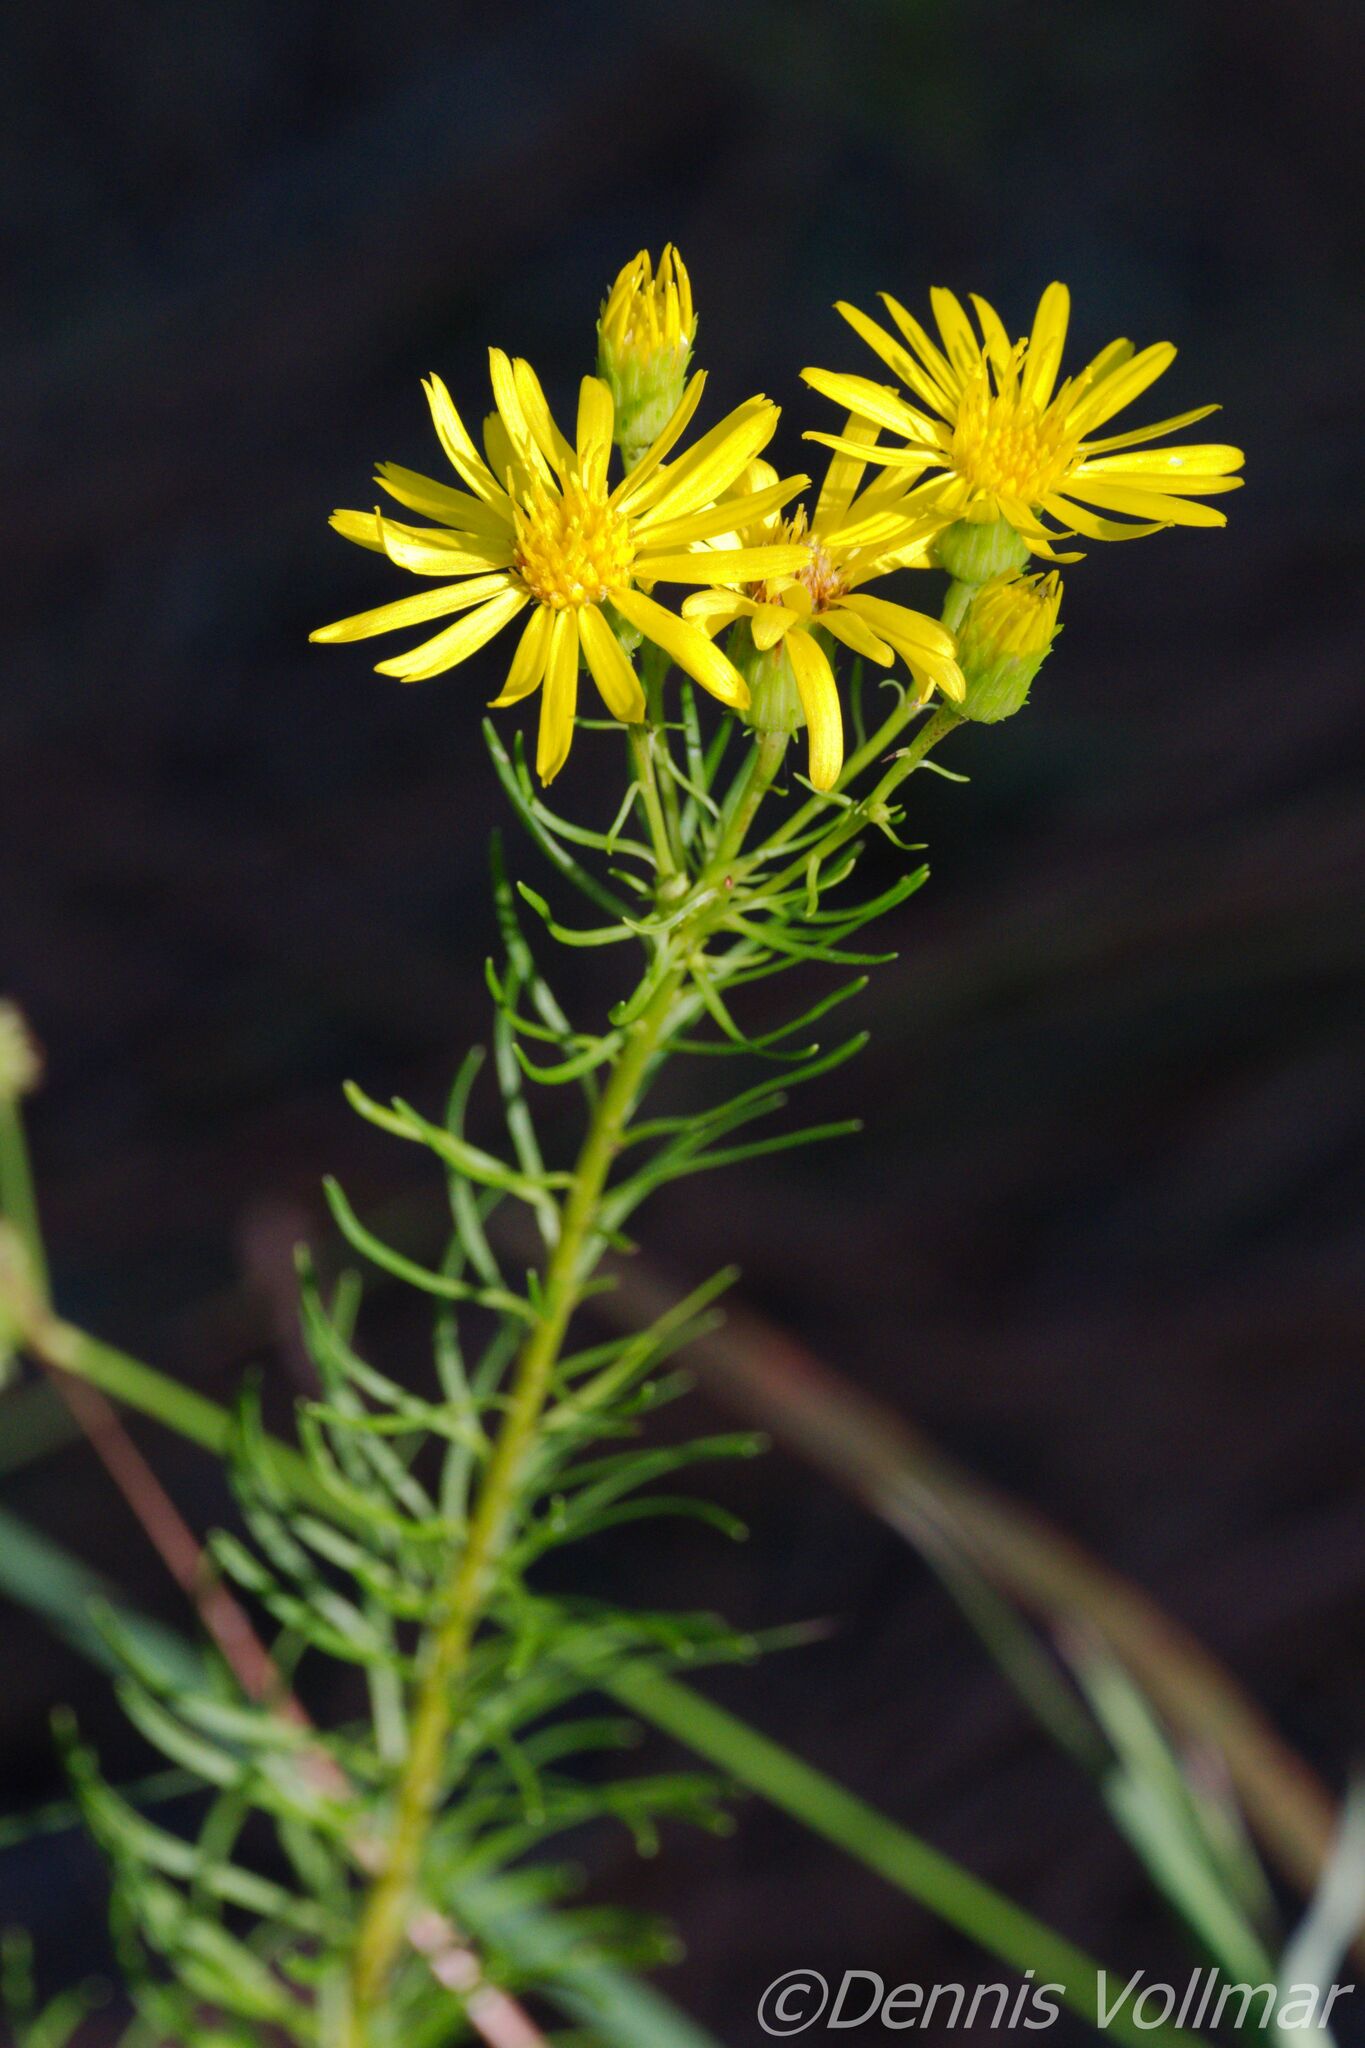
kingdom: Plantae
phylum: Tracheophyta
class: Magnoliopsida
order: Asterales
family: Asteraceae
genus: Chrysopsis
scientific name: Chrysopsis gossypina
